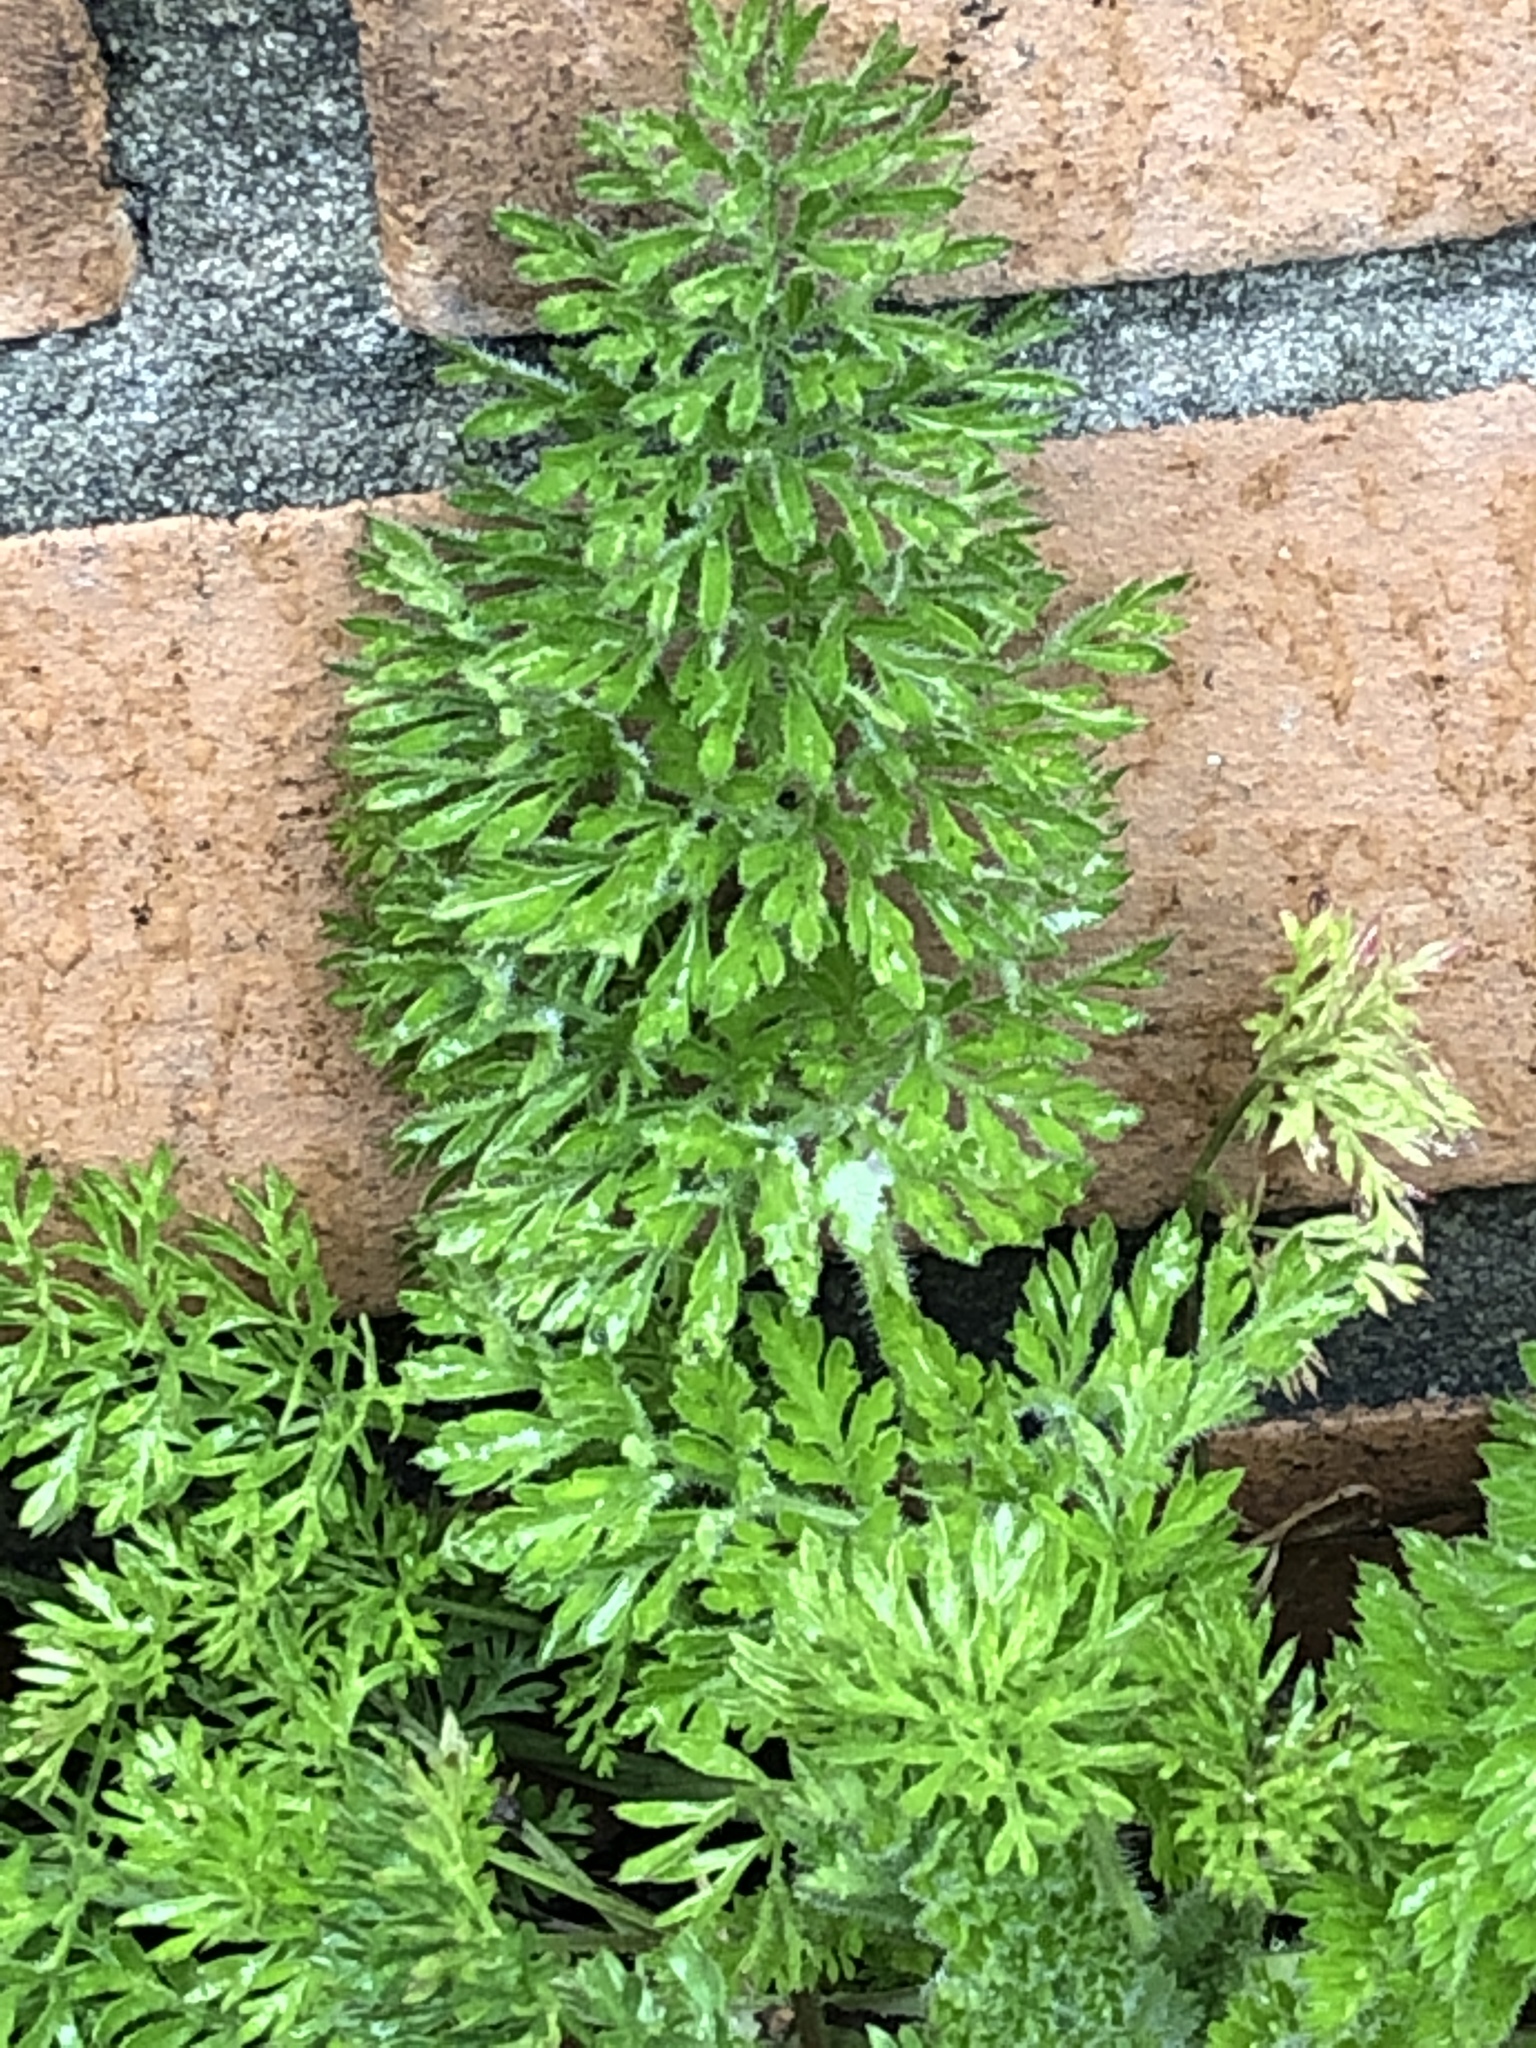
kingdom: Plantae
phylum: Tracheophyta
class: Magnoliopsida
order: Apiales
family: Apiaceae
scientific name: Apiaceae
